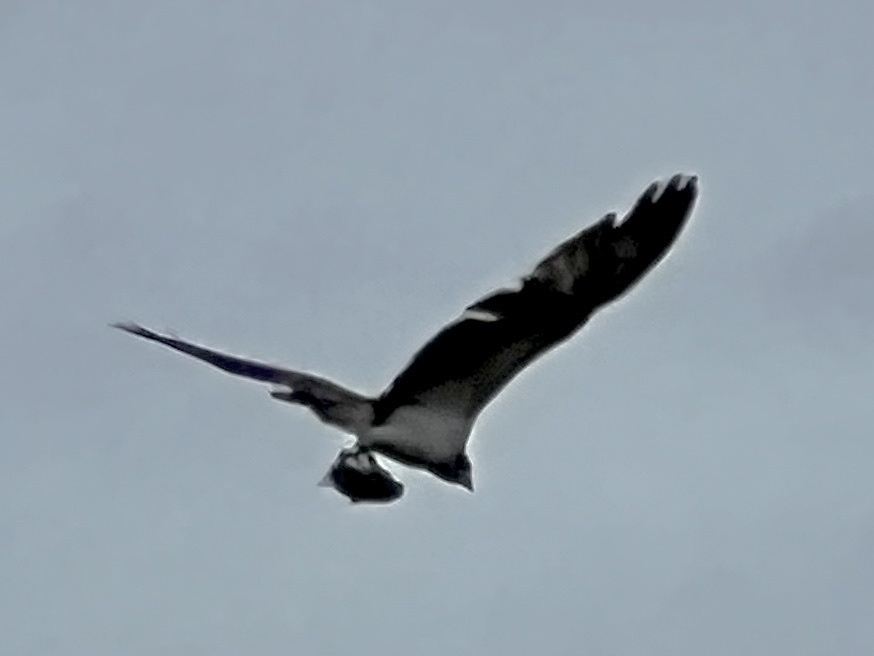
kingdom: Animalia
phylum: Chordata
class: Aves
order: Accipitriformes
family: Pandionidae
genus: Pandion
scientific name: Pandion haliaetus
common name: Osprey
